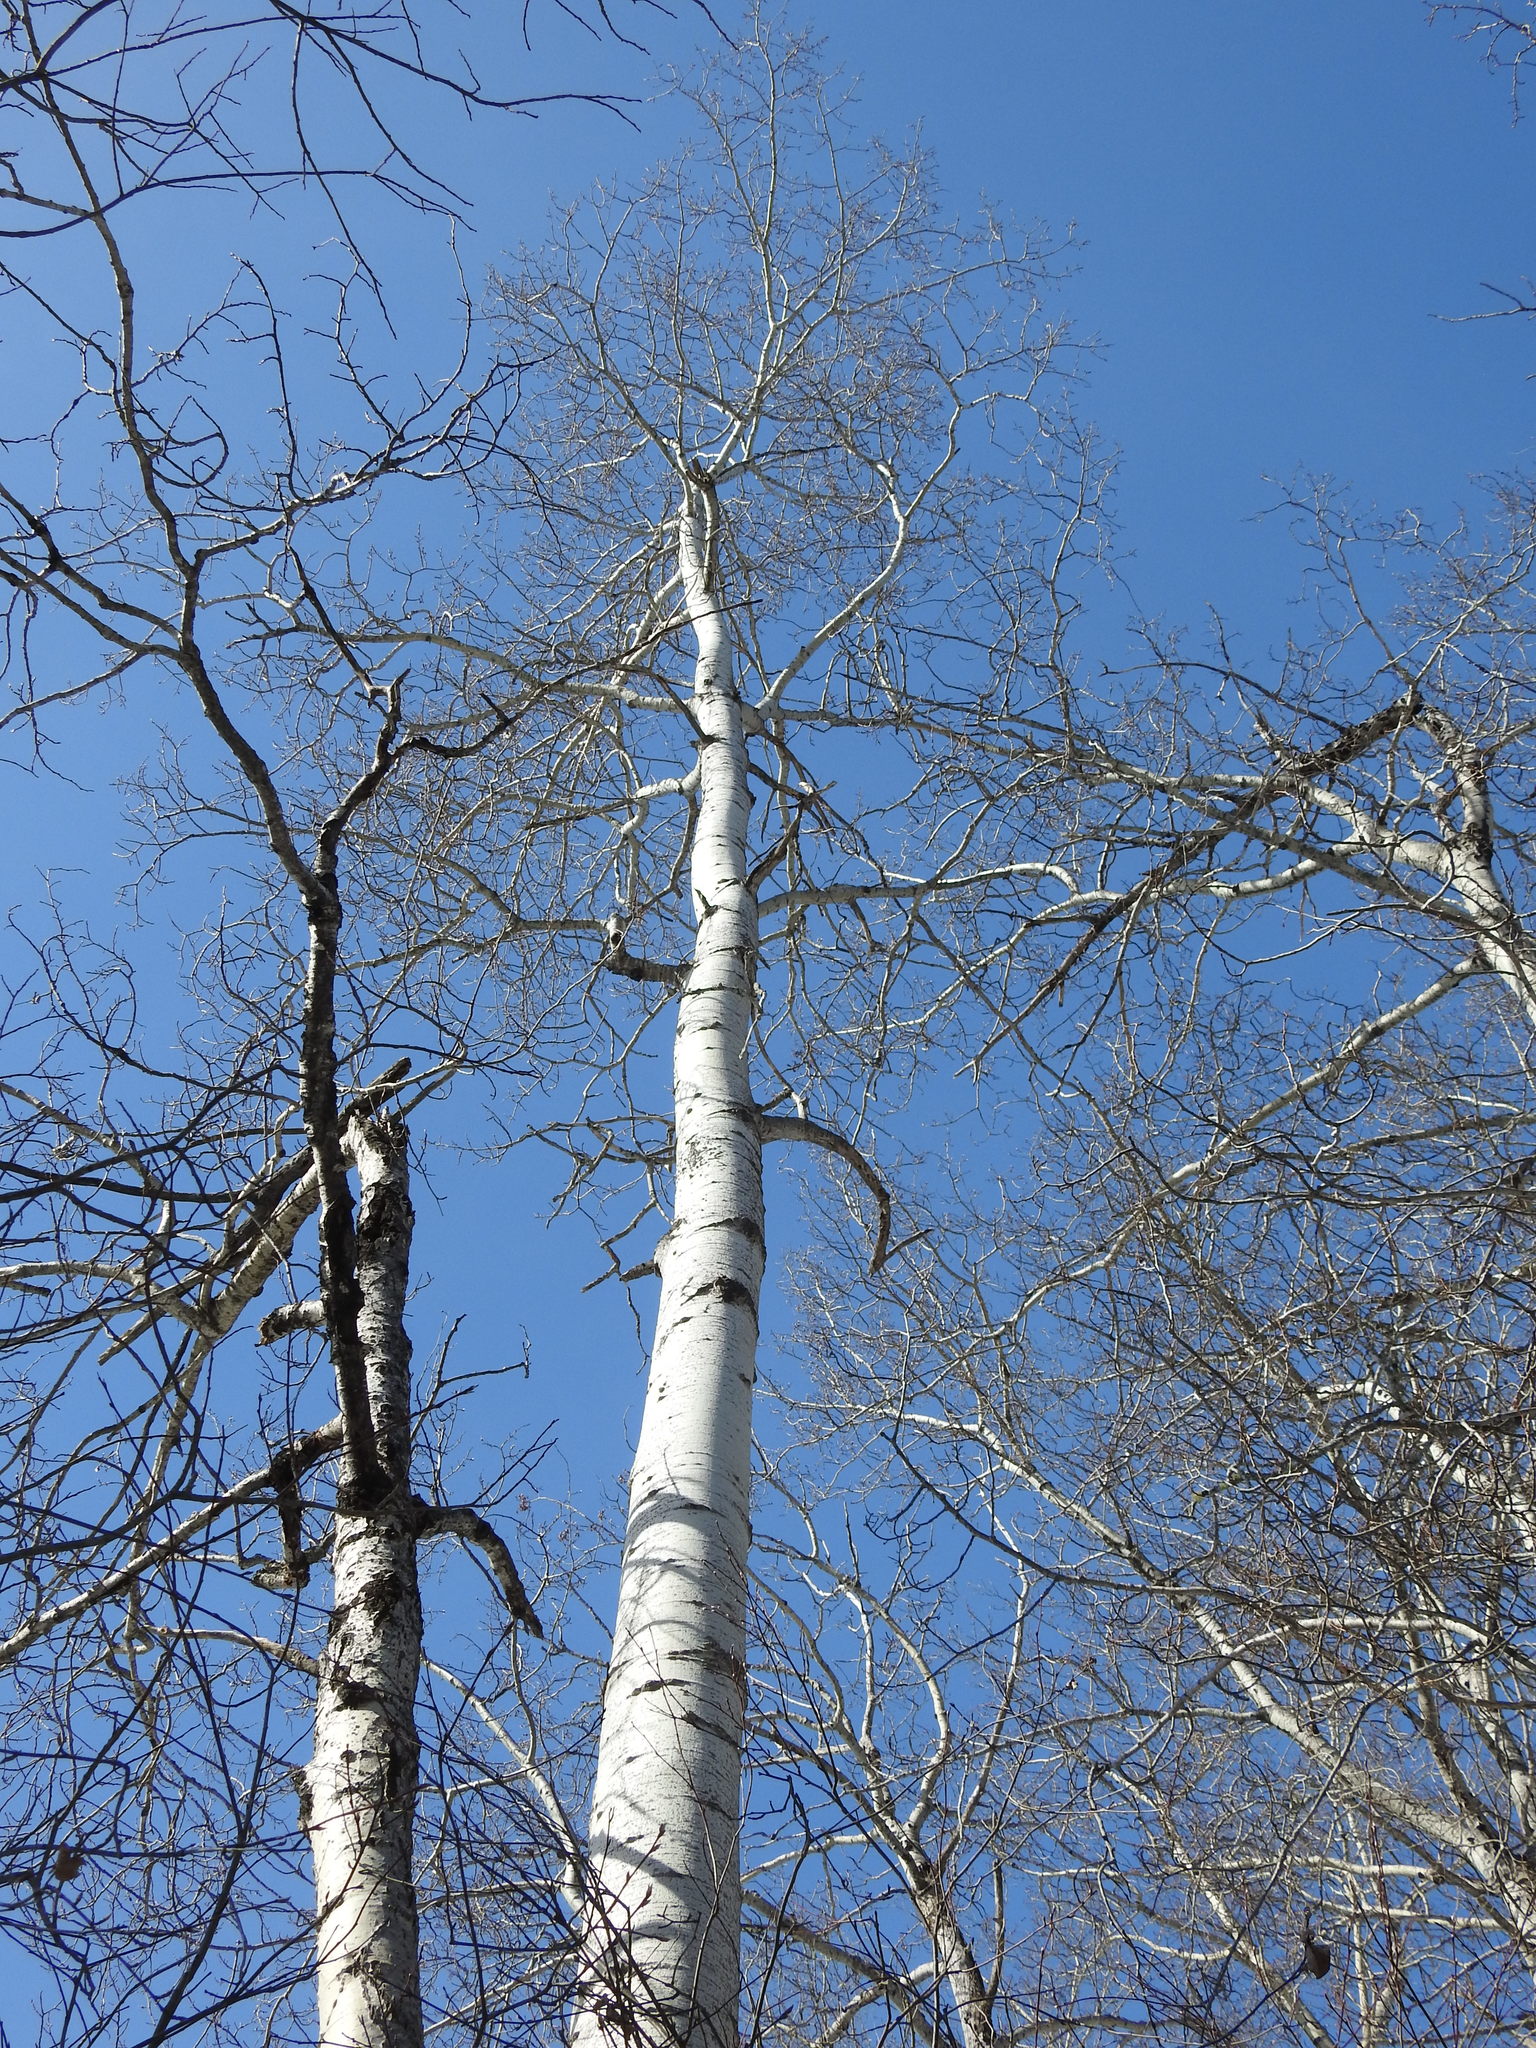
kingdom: Plantae
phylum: Tracheophyta
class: Magnoliopsida
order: Malpighiales
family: Salicaceae
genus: Populus
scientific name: Populus tremuloides
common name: Quaking aspen
